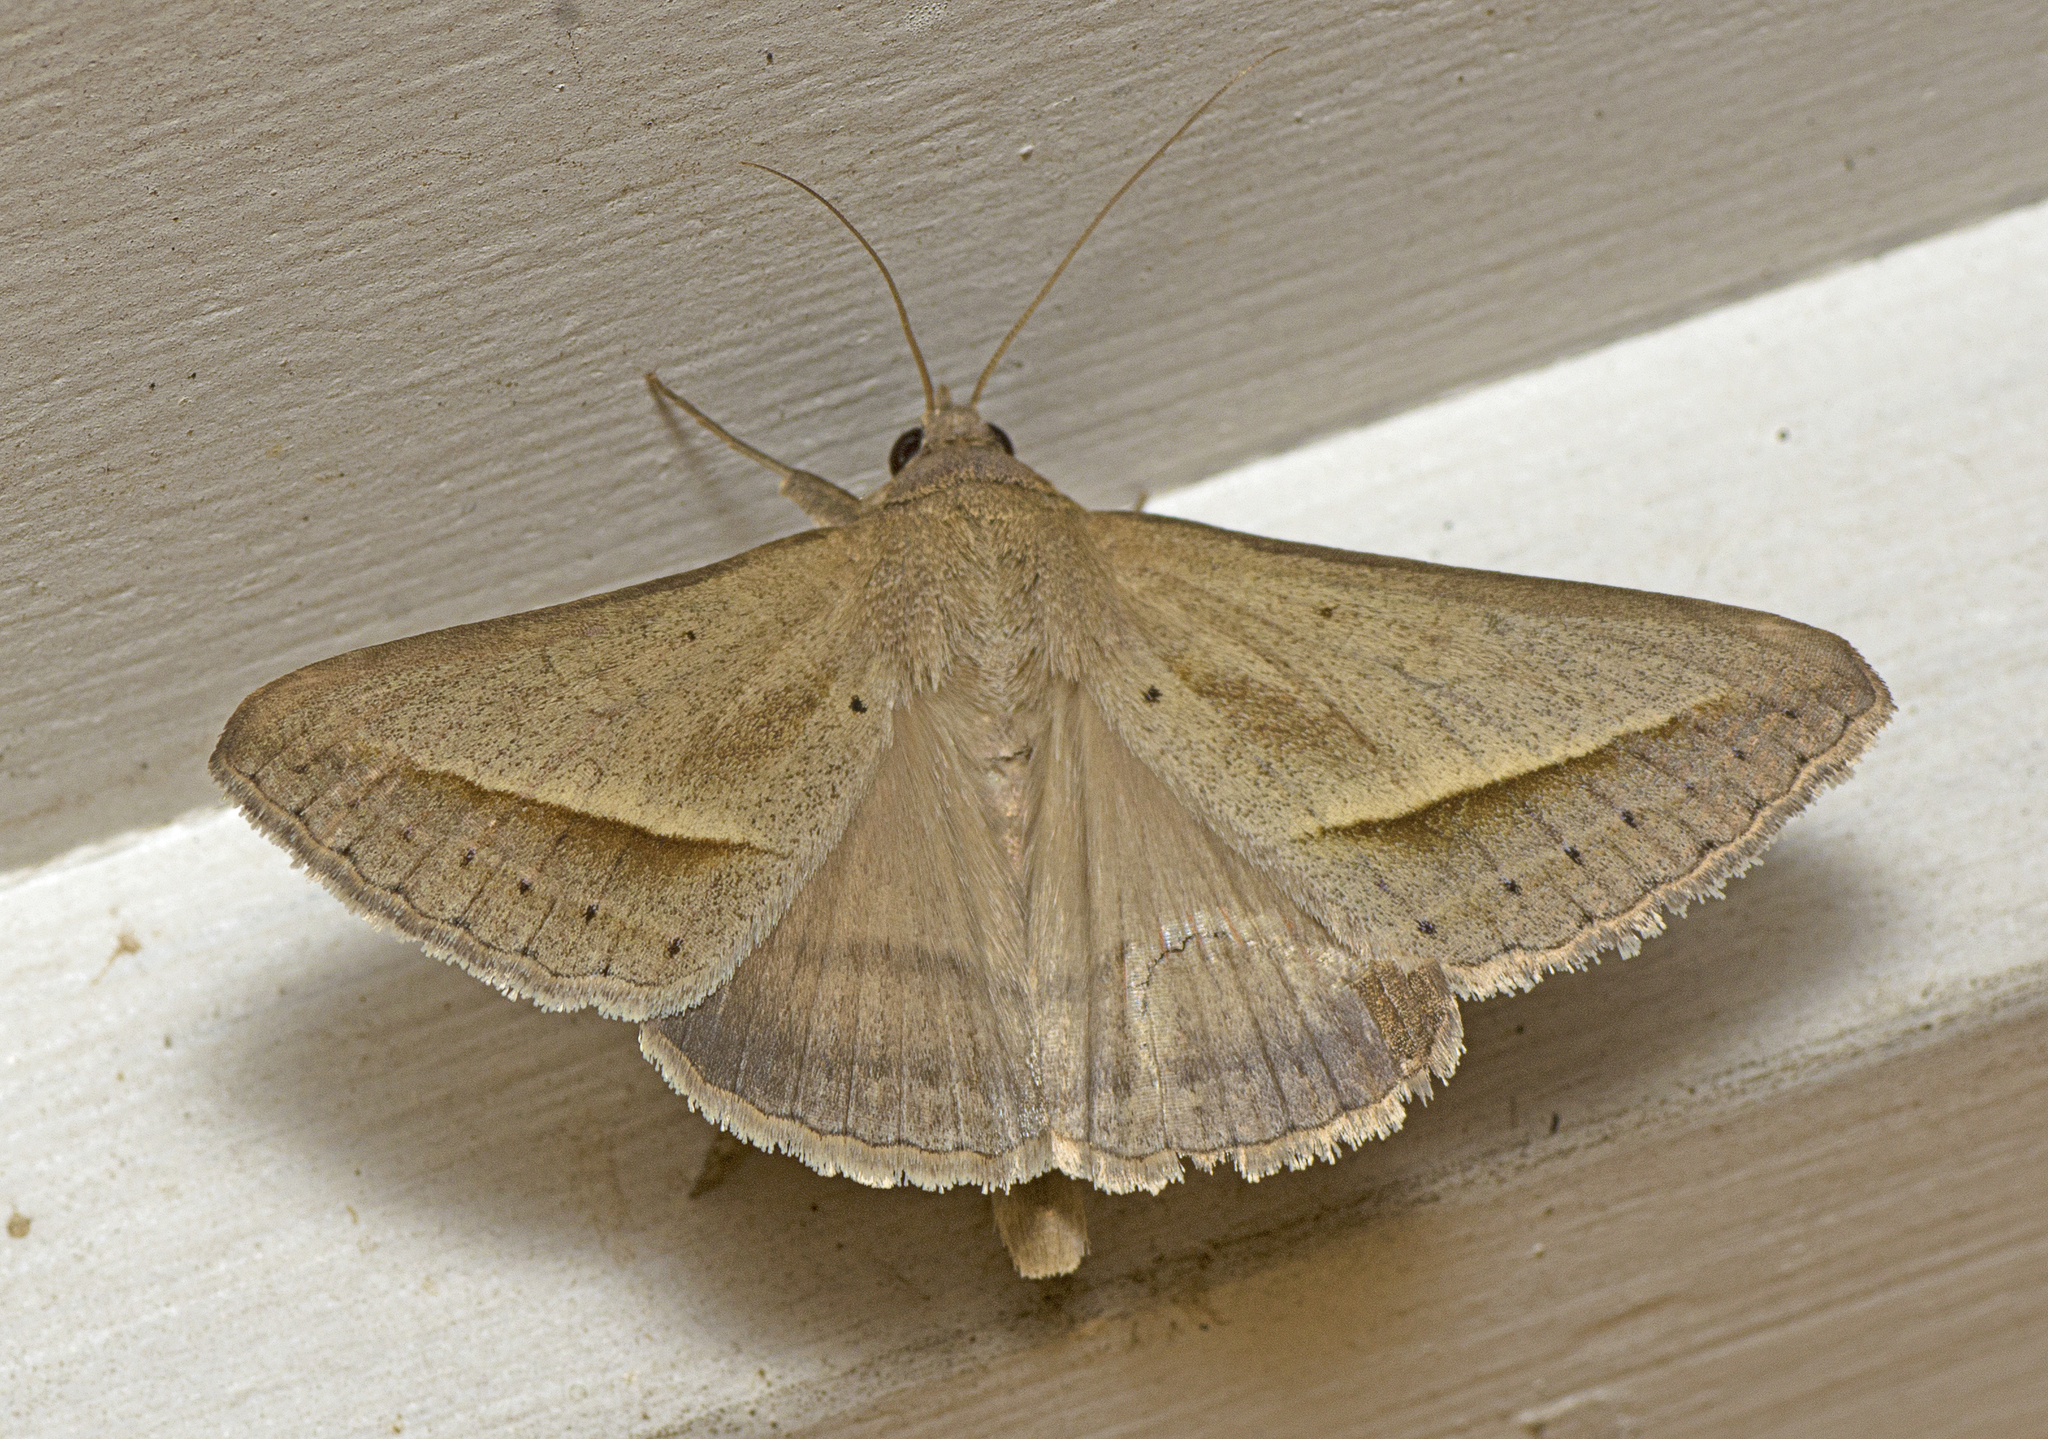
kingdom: Animalia
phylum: Arthropoda
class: Insecta
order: Lepidoptera
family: Erebidae
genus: Mocis
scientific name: Mocis frugalis
